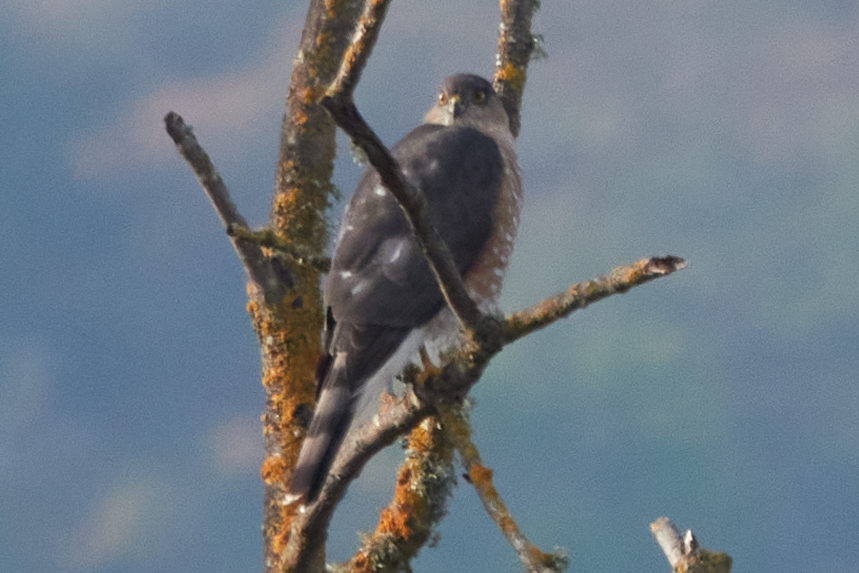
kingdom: Animalia
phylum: Chordata
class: Aves
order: Accipitriformes
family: Accipitridae
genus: Accipiter
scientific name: Accipiter striatus
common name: Sharp-shinned hawk
